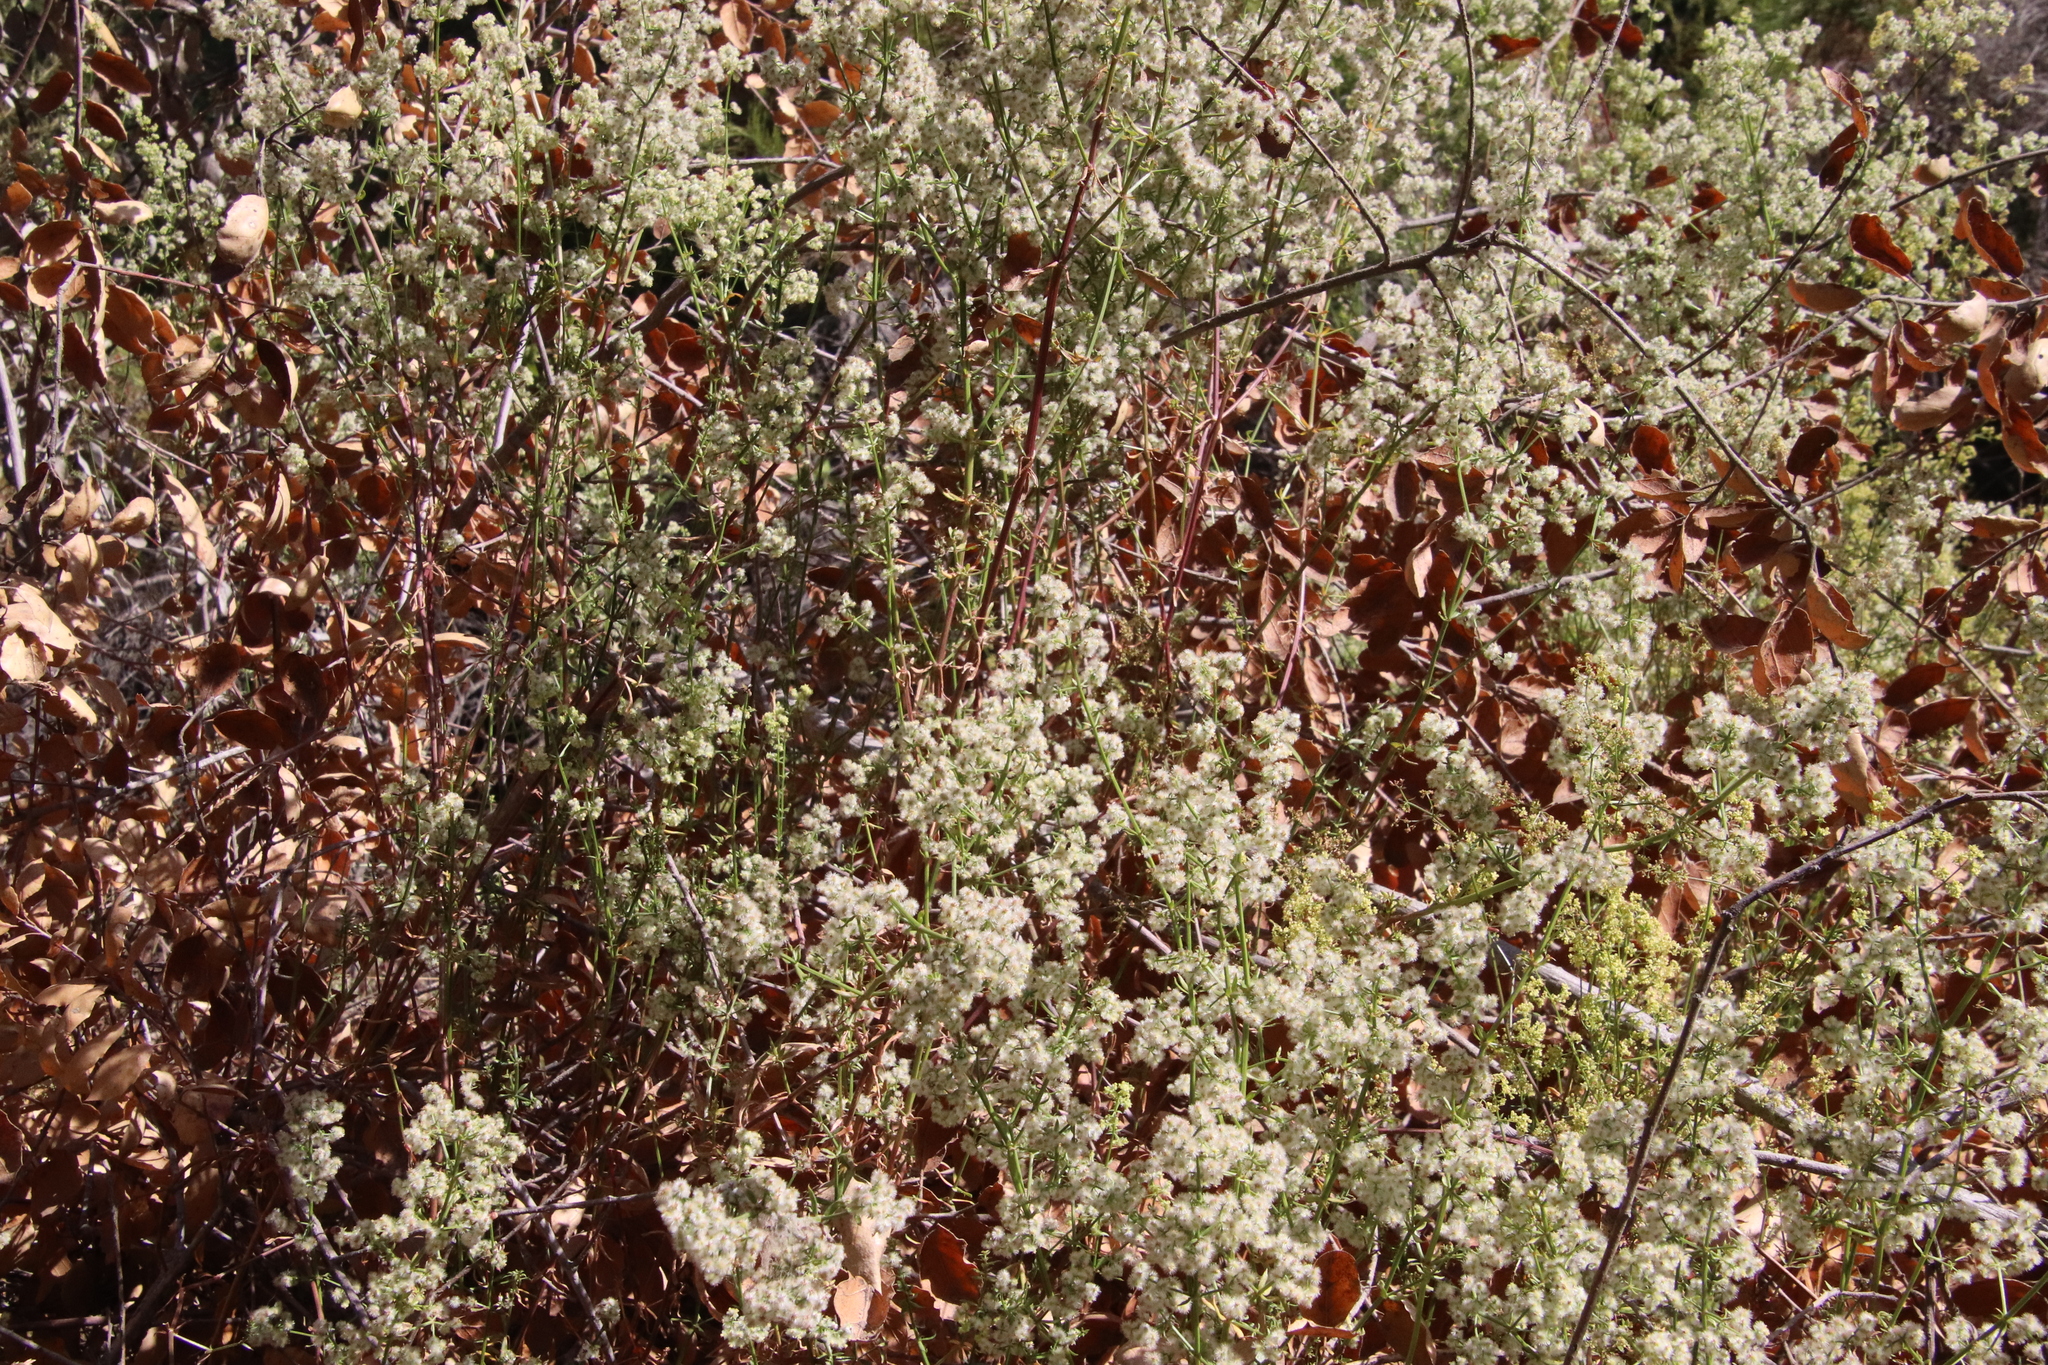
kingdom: Plantae
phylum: Tracheophyta
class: Magnoliopsida
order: Gentianales
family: Rubiaceae
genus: Galium
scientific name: Galium angustifolium
